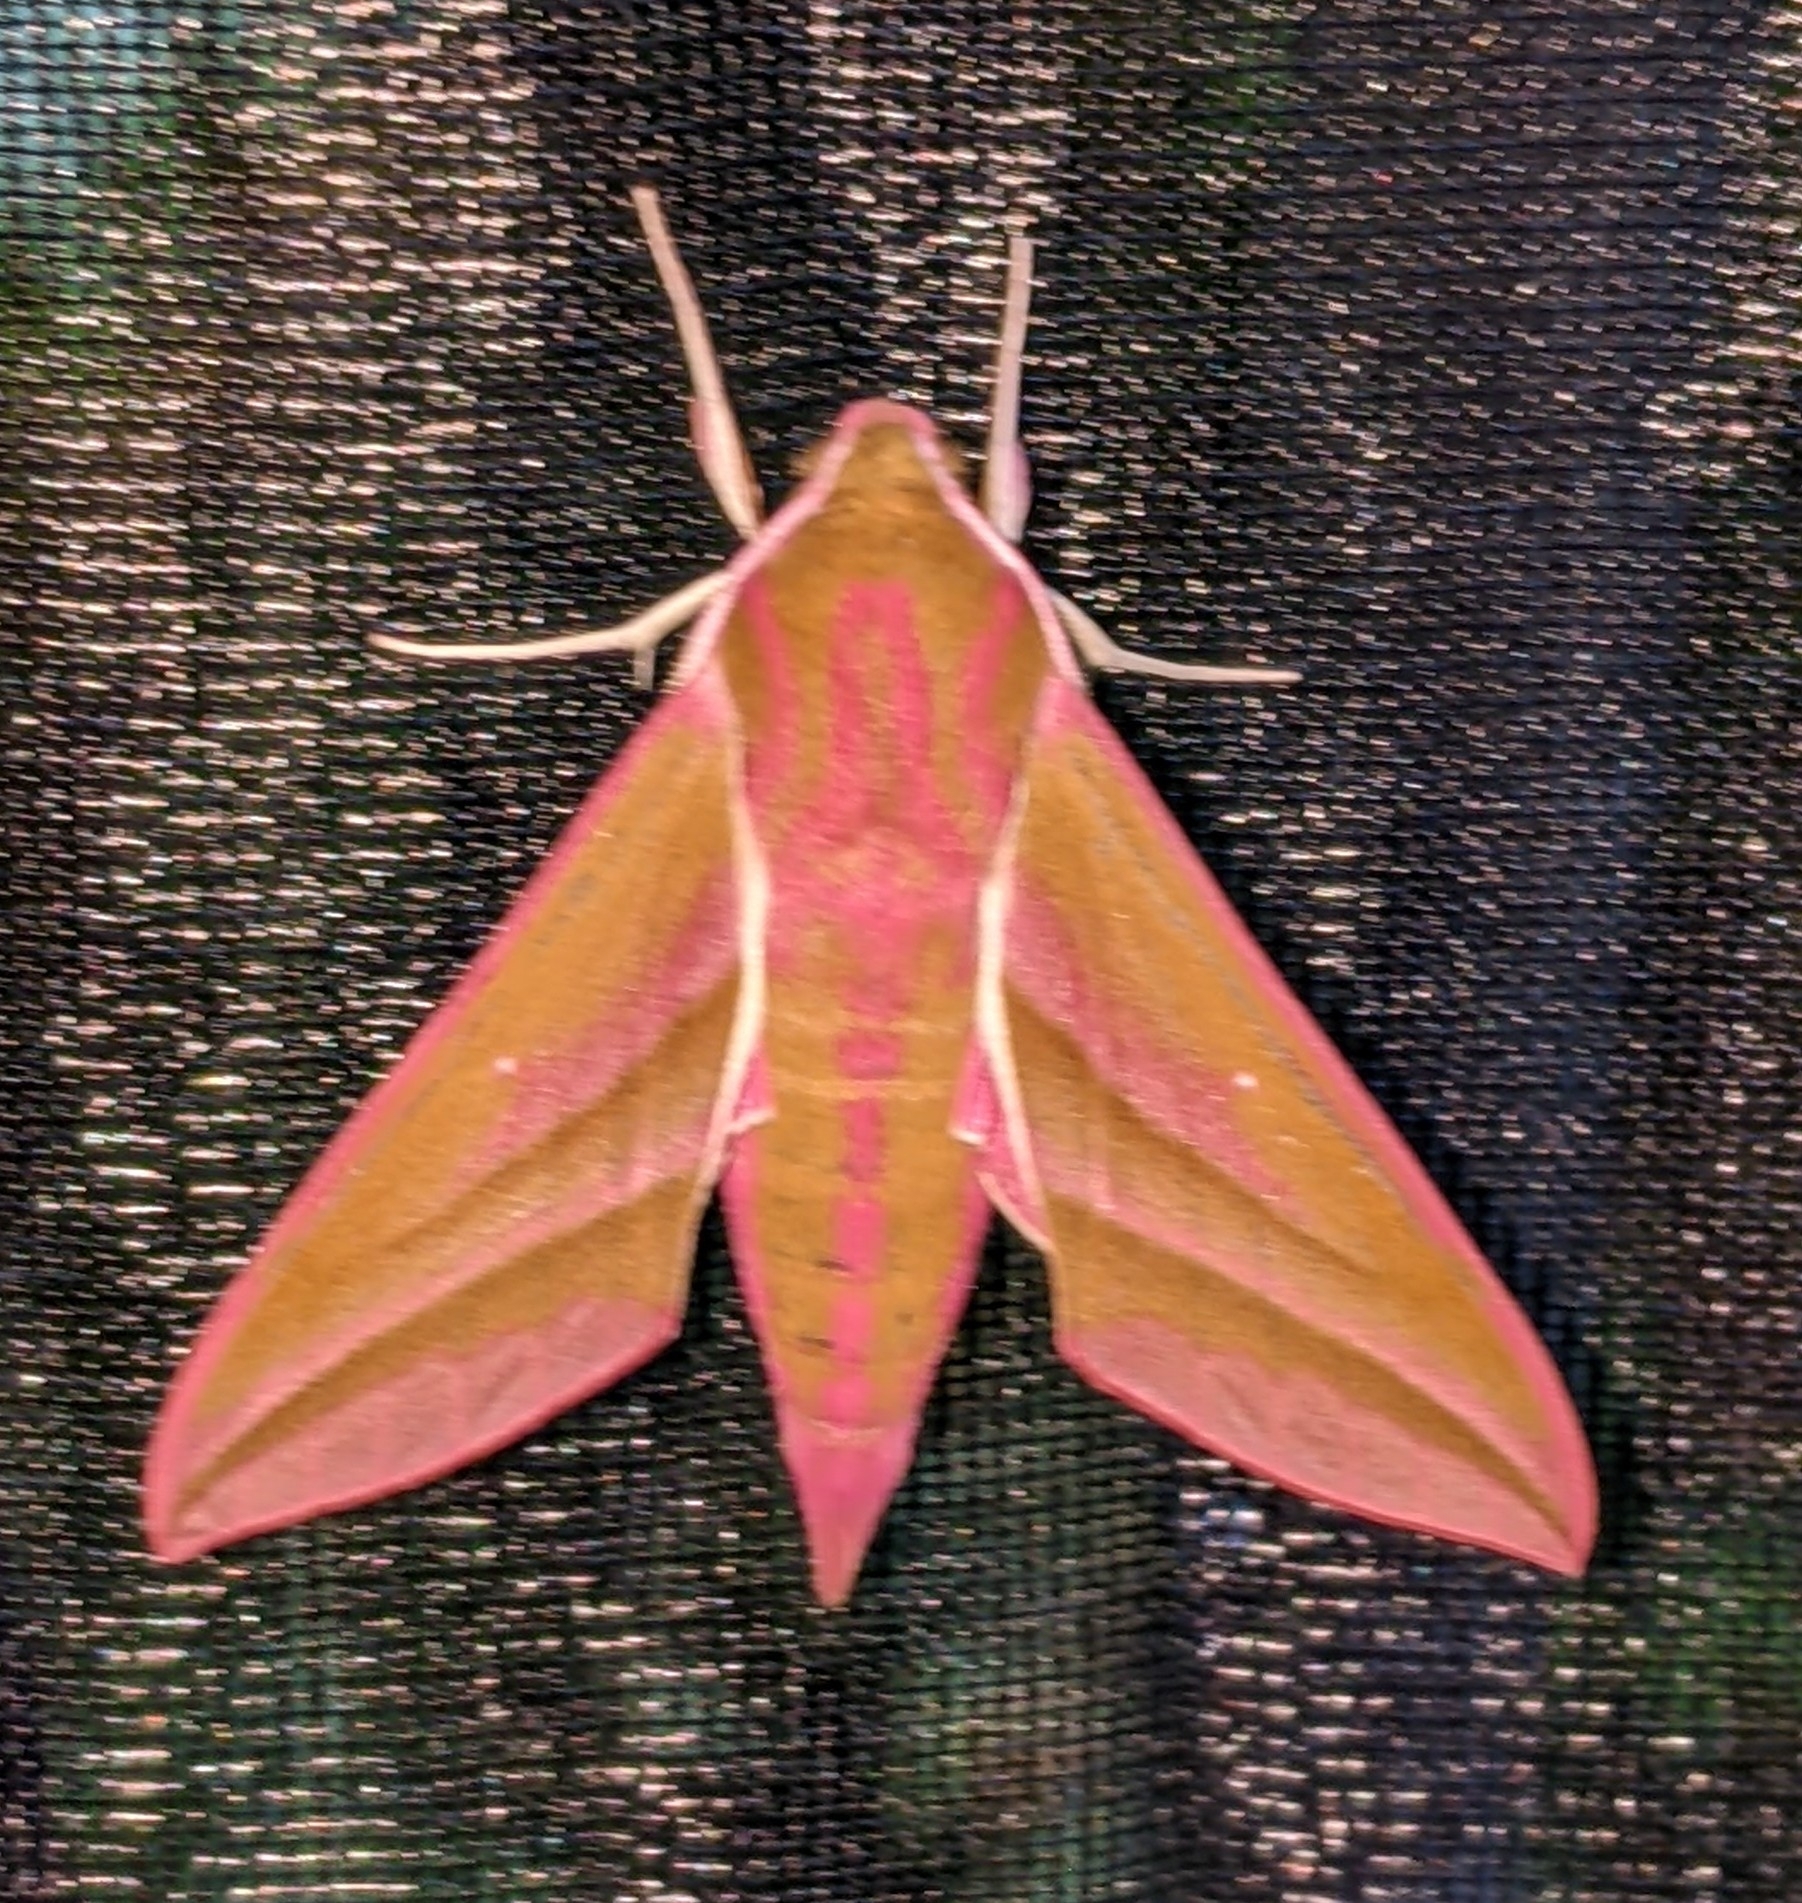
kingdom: Animalia
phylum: Arthropoda
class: Insecta
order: Lepidoptera
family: Sphingidae
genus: Deilephila
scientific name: Deilephila elpenor
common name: Elephant hawk-moth
